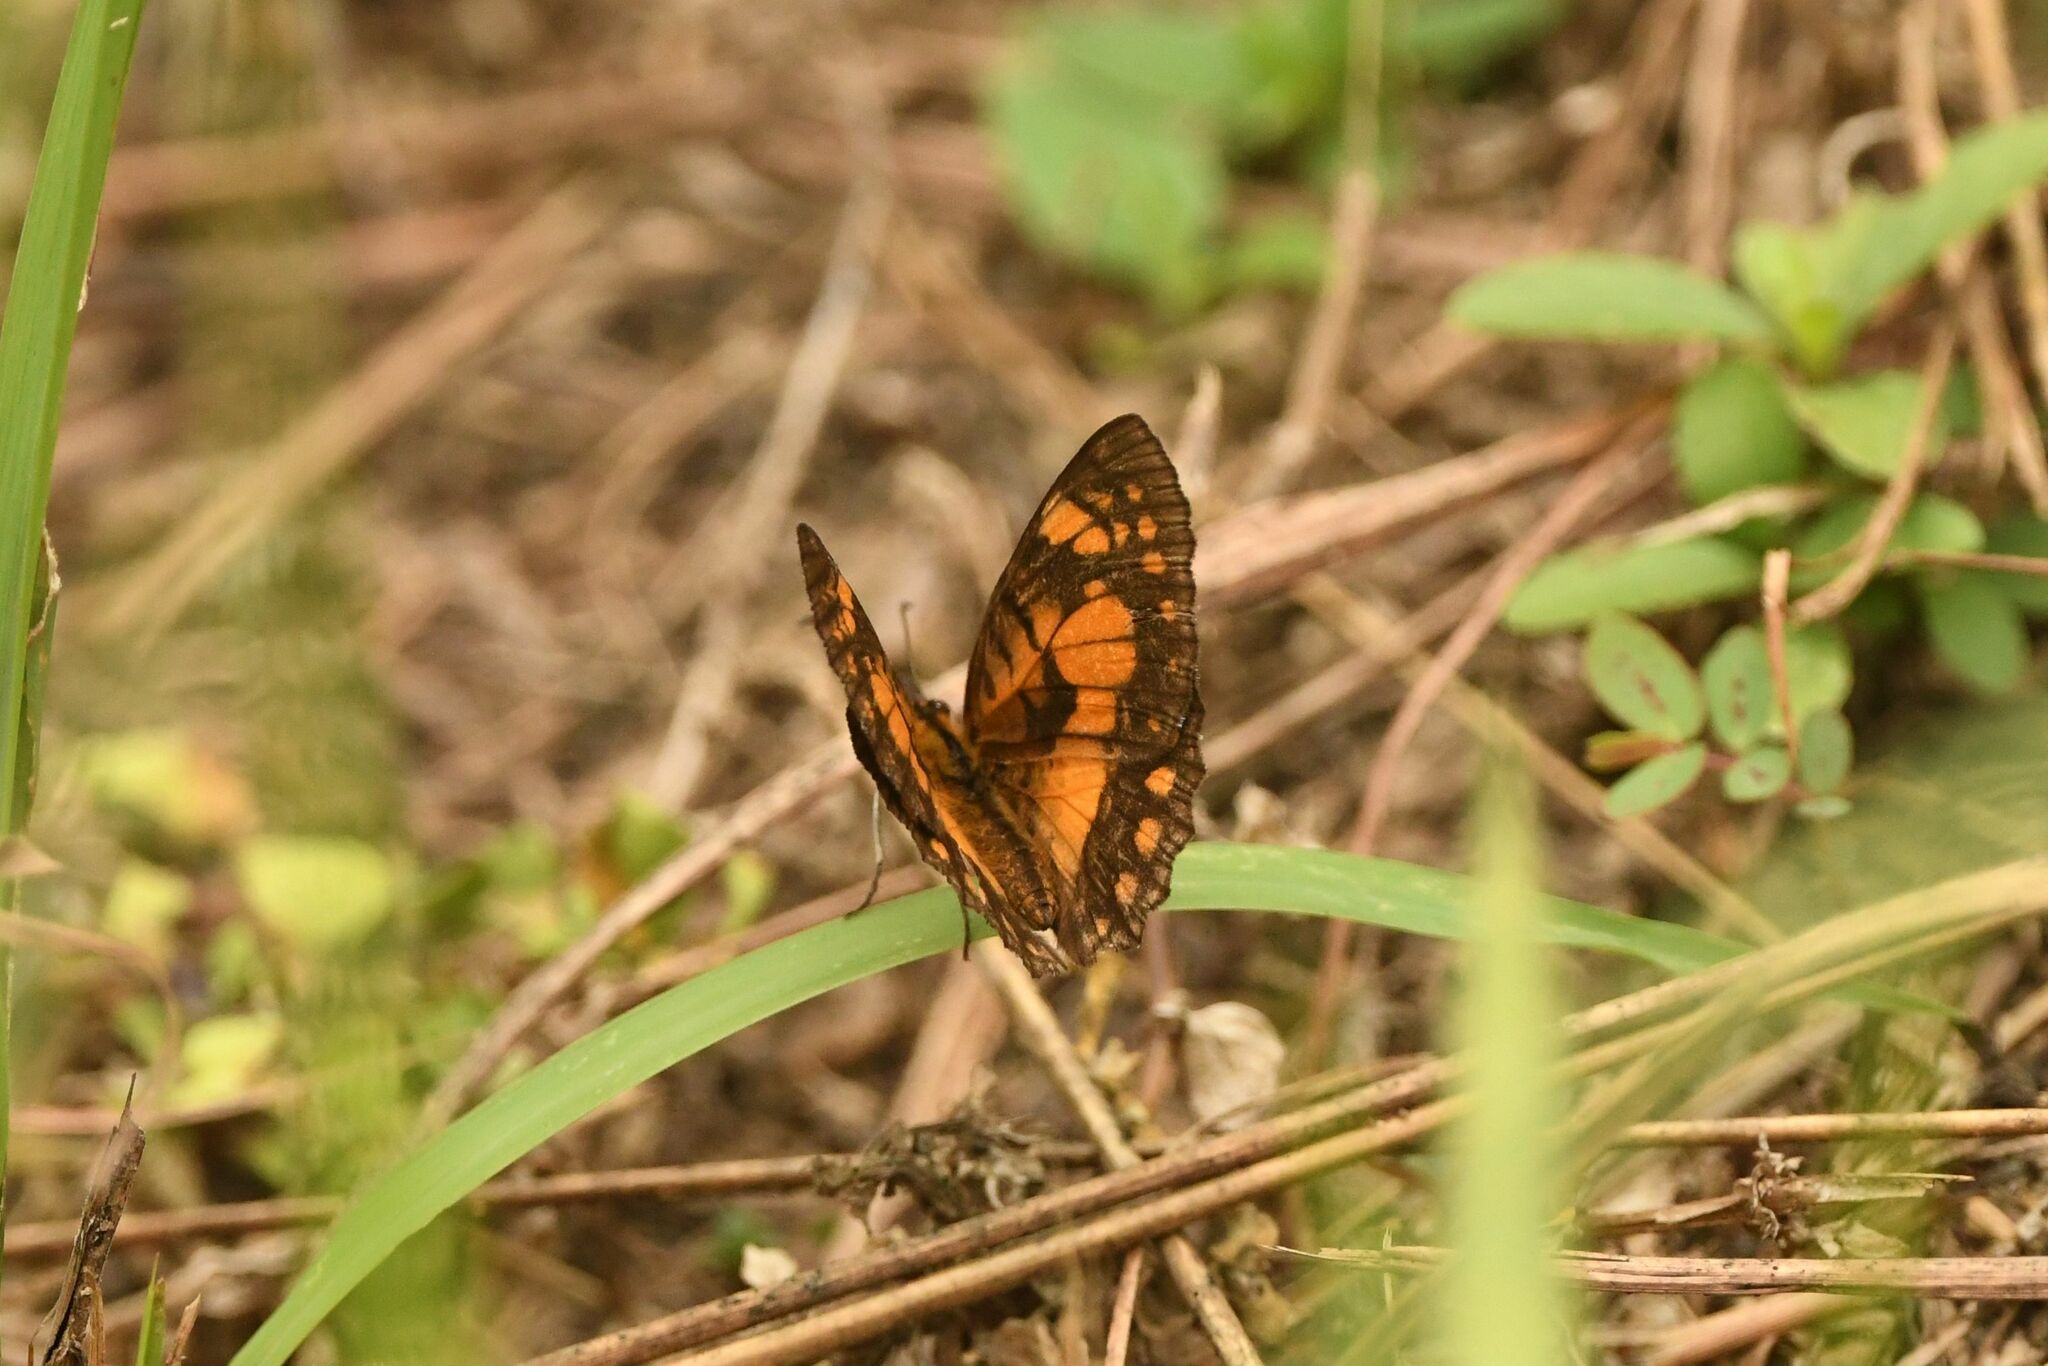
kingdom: Animalia
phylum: Arthropoda
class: Insecta
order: Lepidoptera
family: Nymphalidae
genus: Byblia
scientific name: Byblia anvatara
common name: African joker
